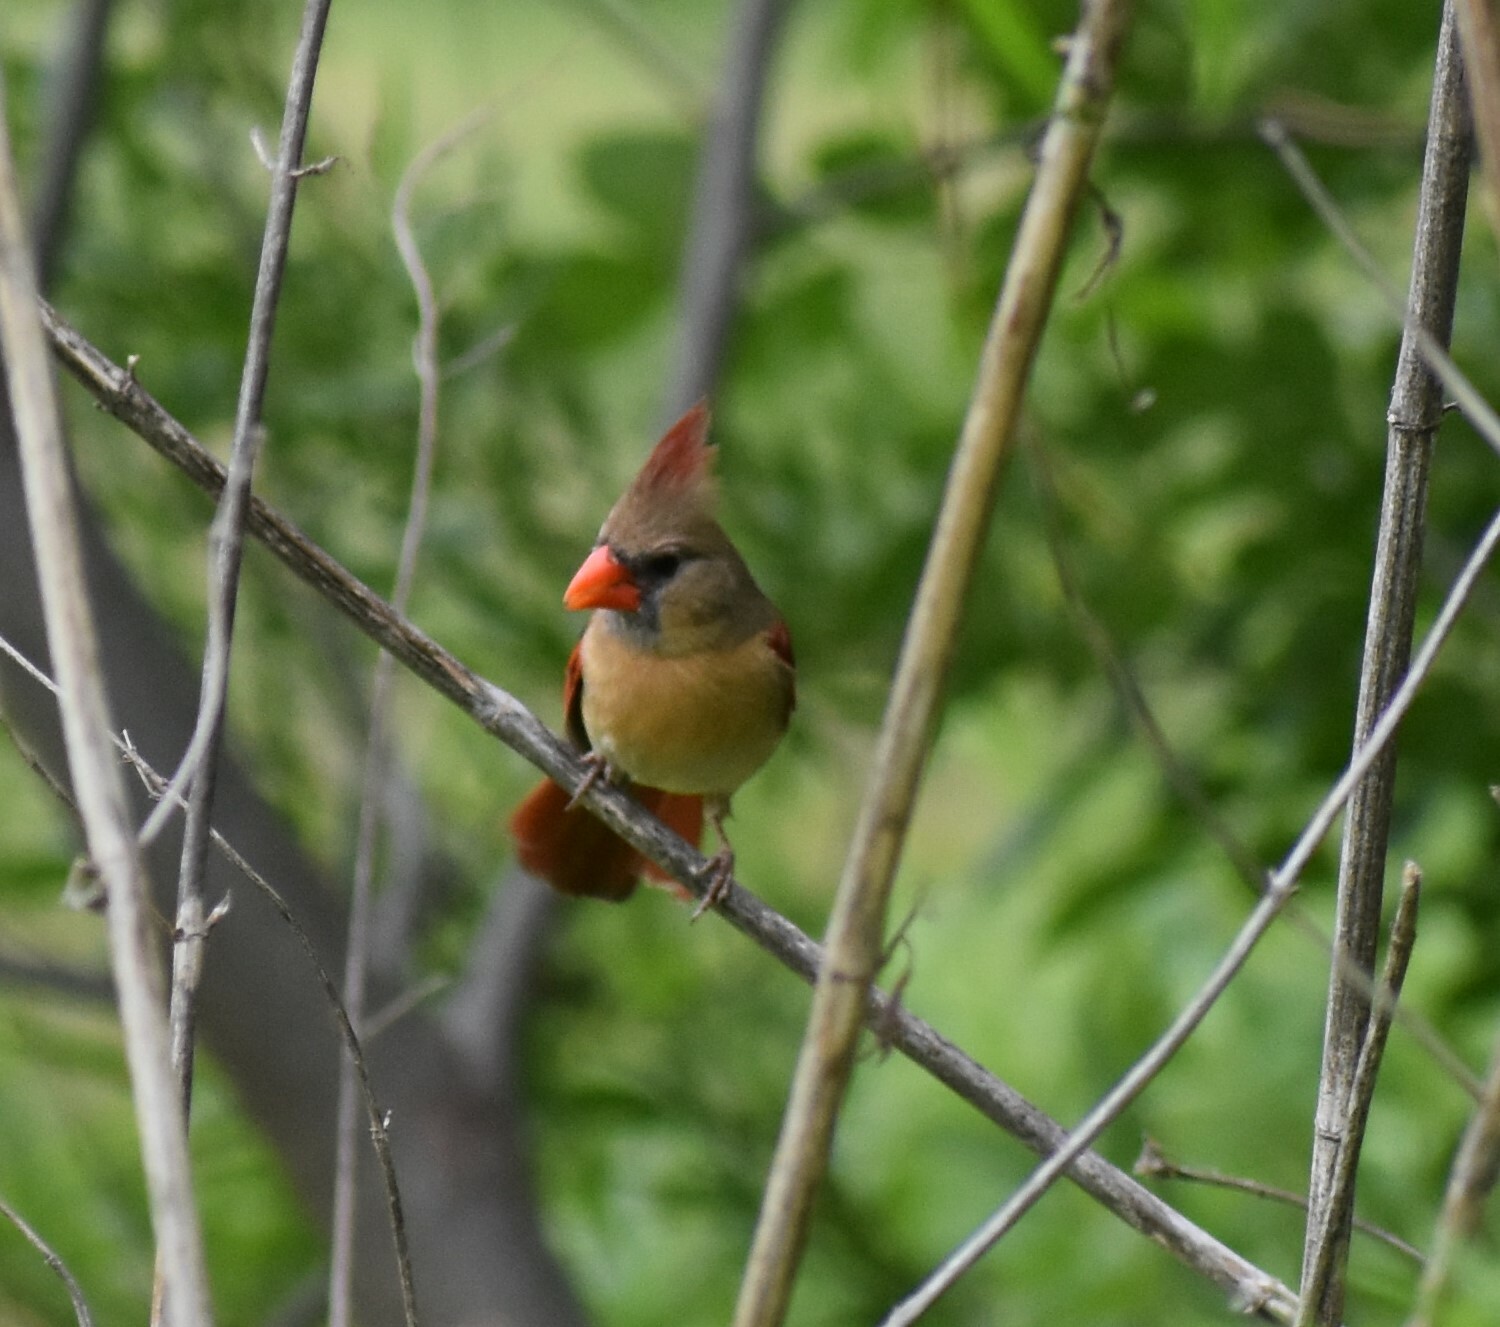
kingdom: Animalia
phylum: Chordata
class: Aves
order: Passeriformes
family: Cardinalidae
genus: Cardinalis
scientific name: Cardinalis cardinalis
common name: Northern cardinal
